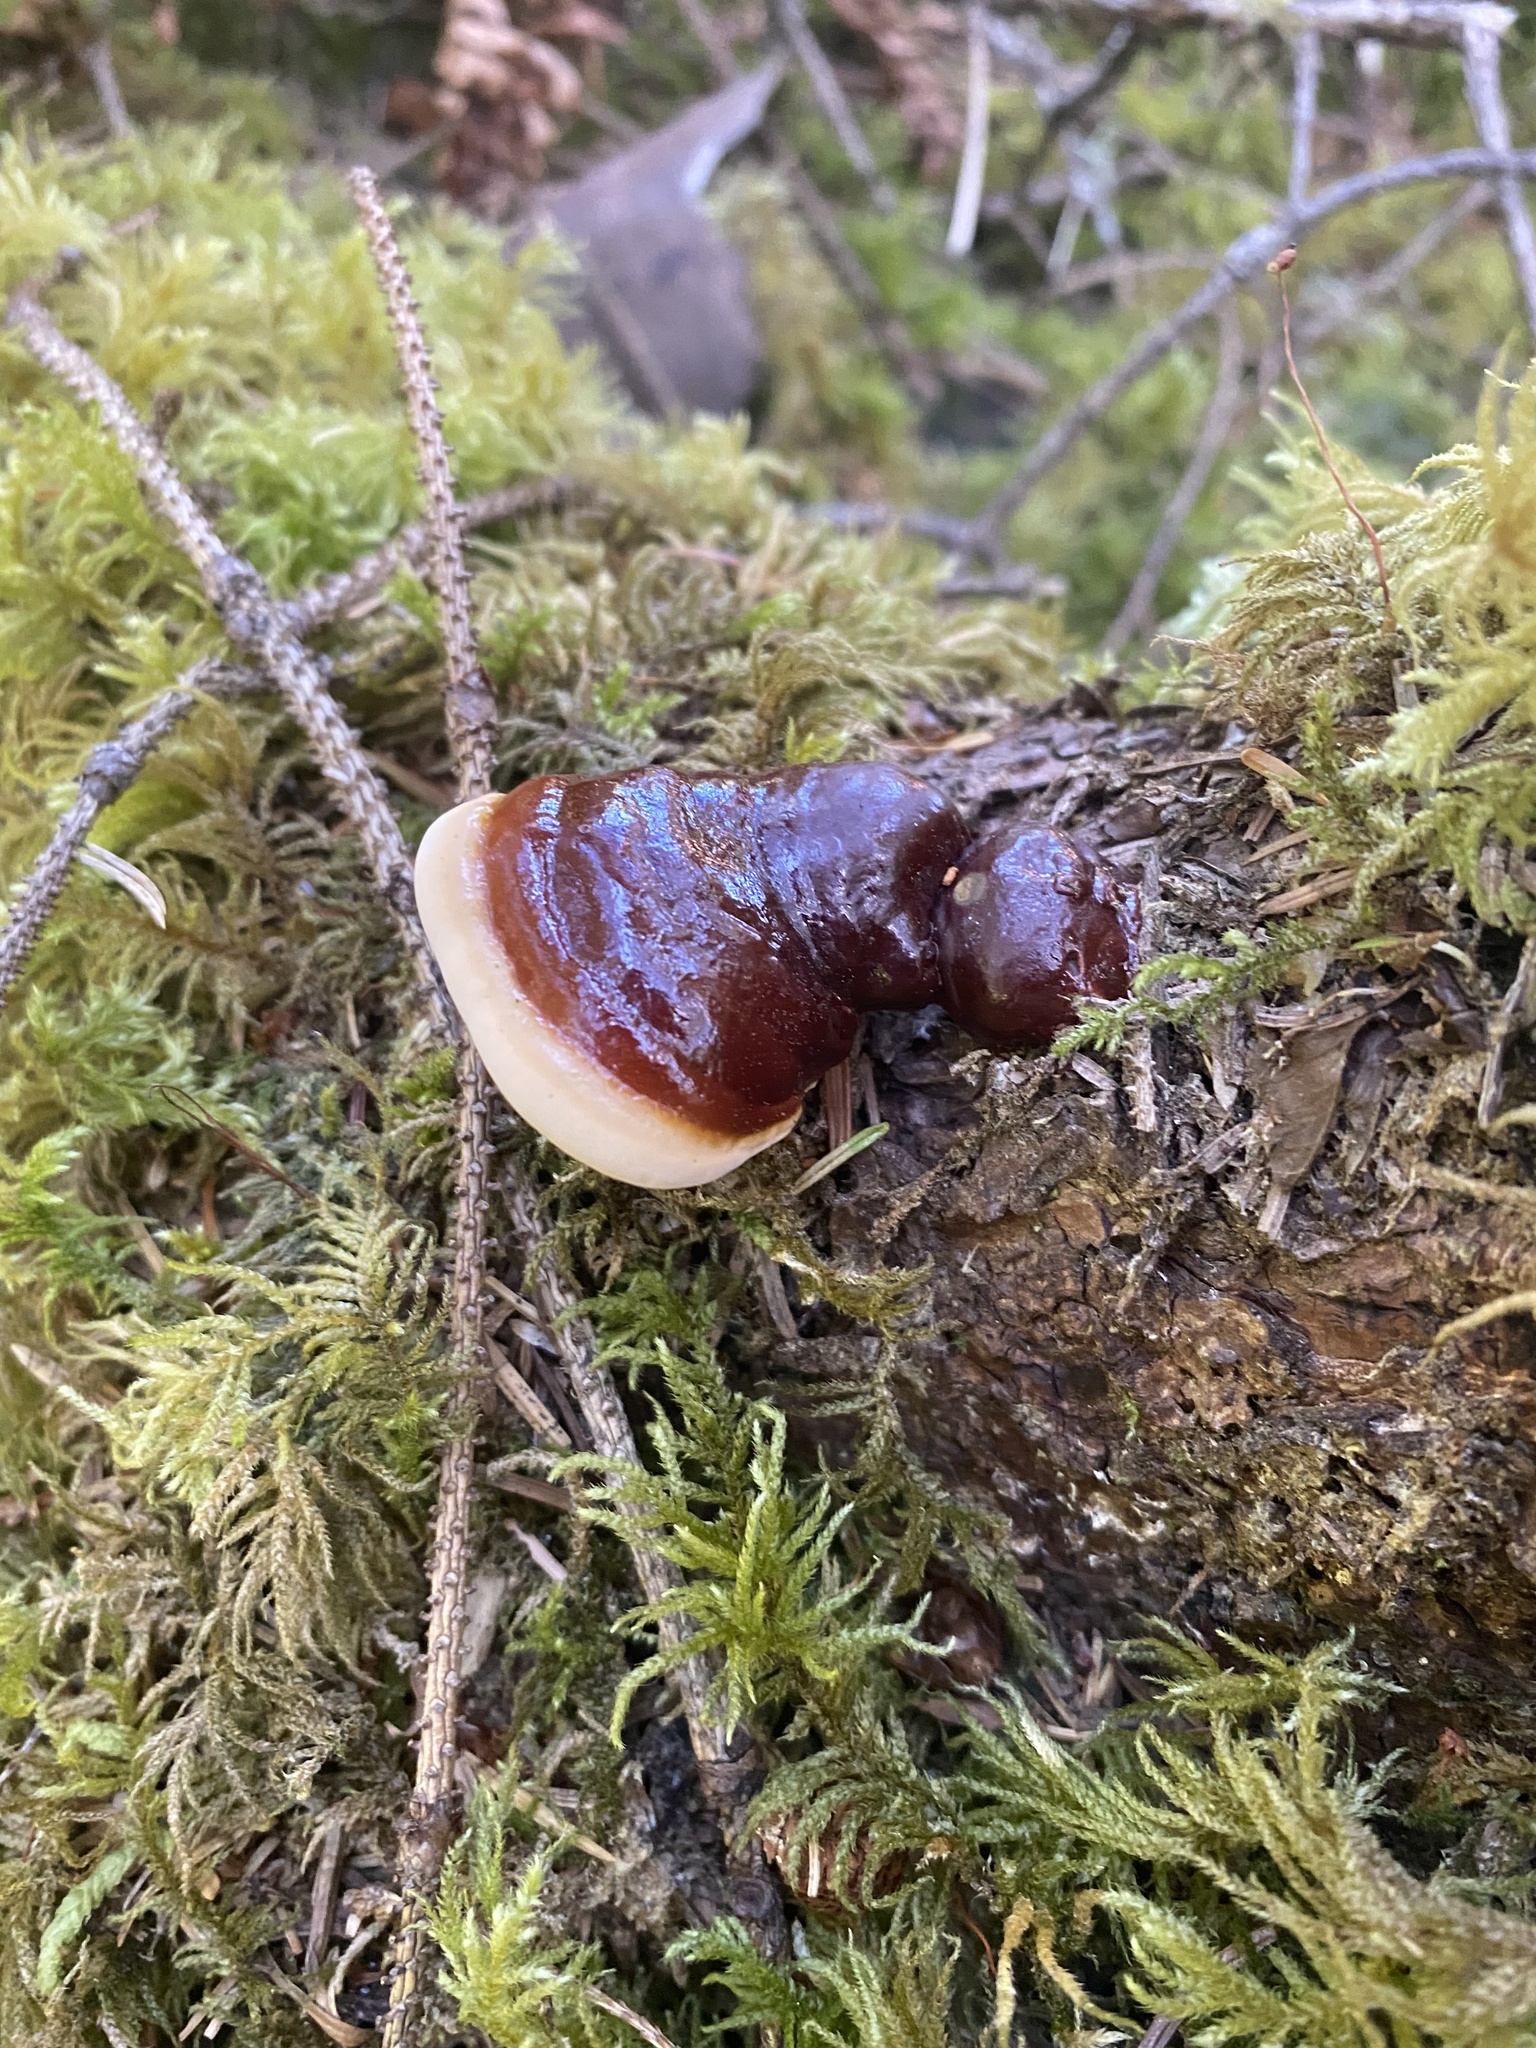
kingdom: Fungi
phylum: Basidiomycota
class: Agaricomycetes
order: Polyporales
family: Polyporaceae
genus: Ganoderma
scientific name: Ganoderma oregonense
